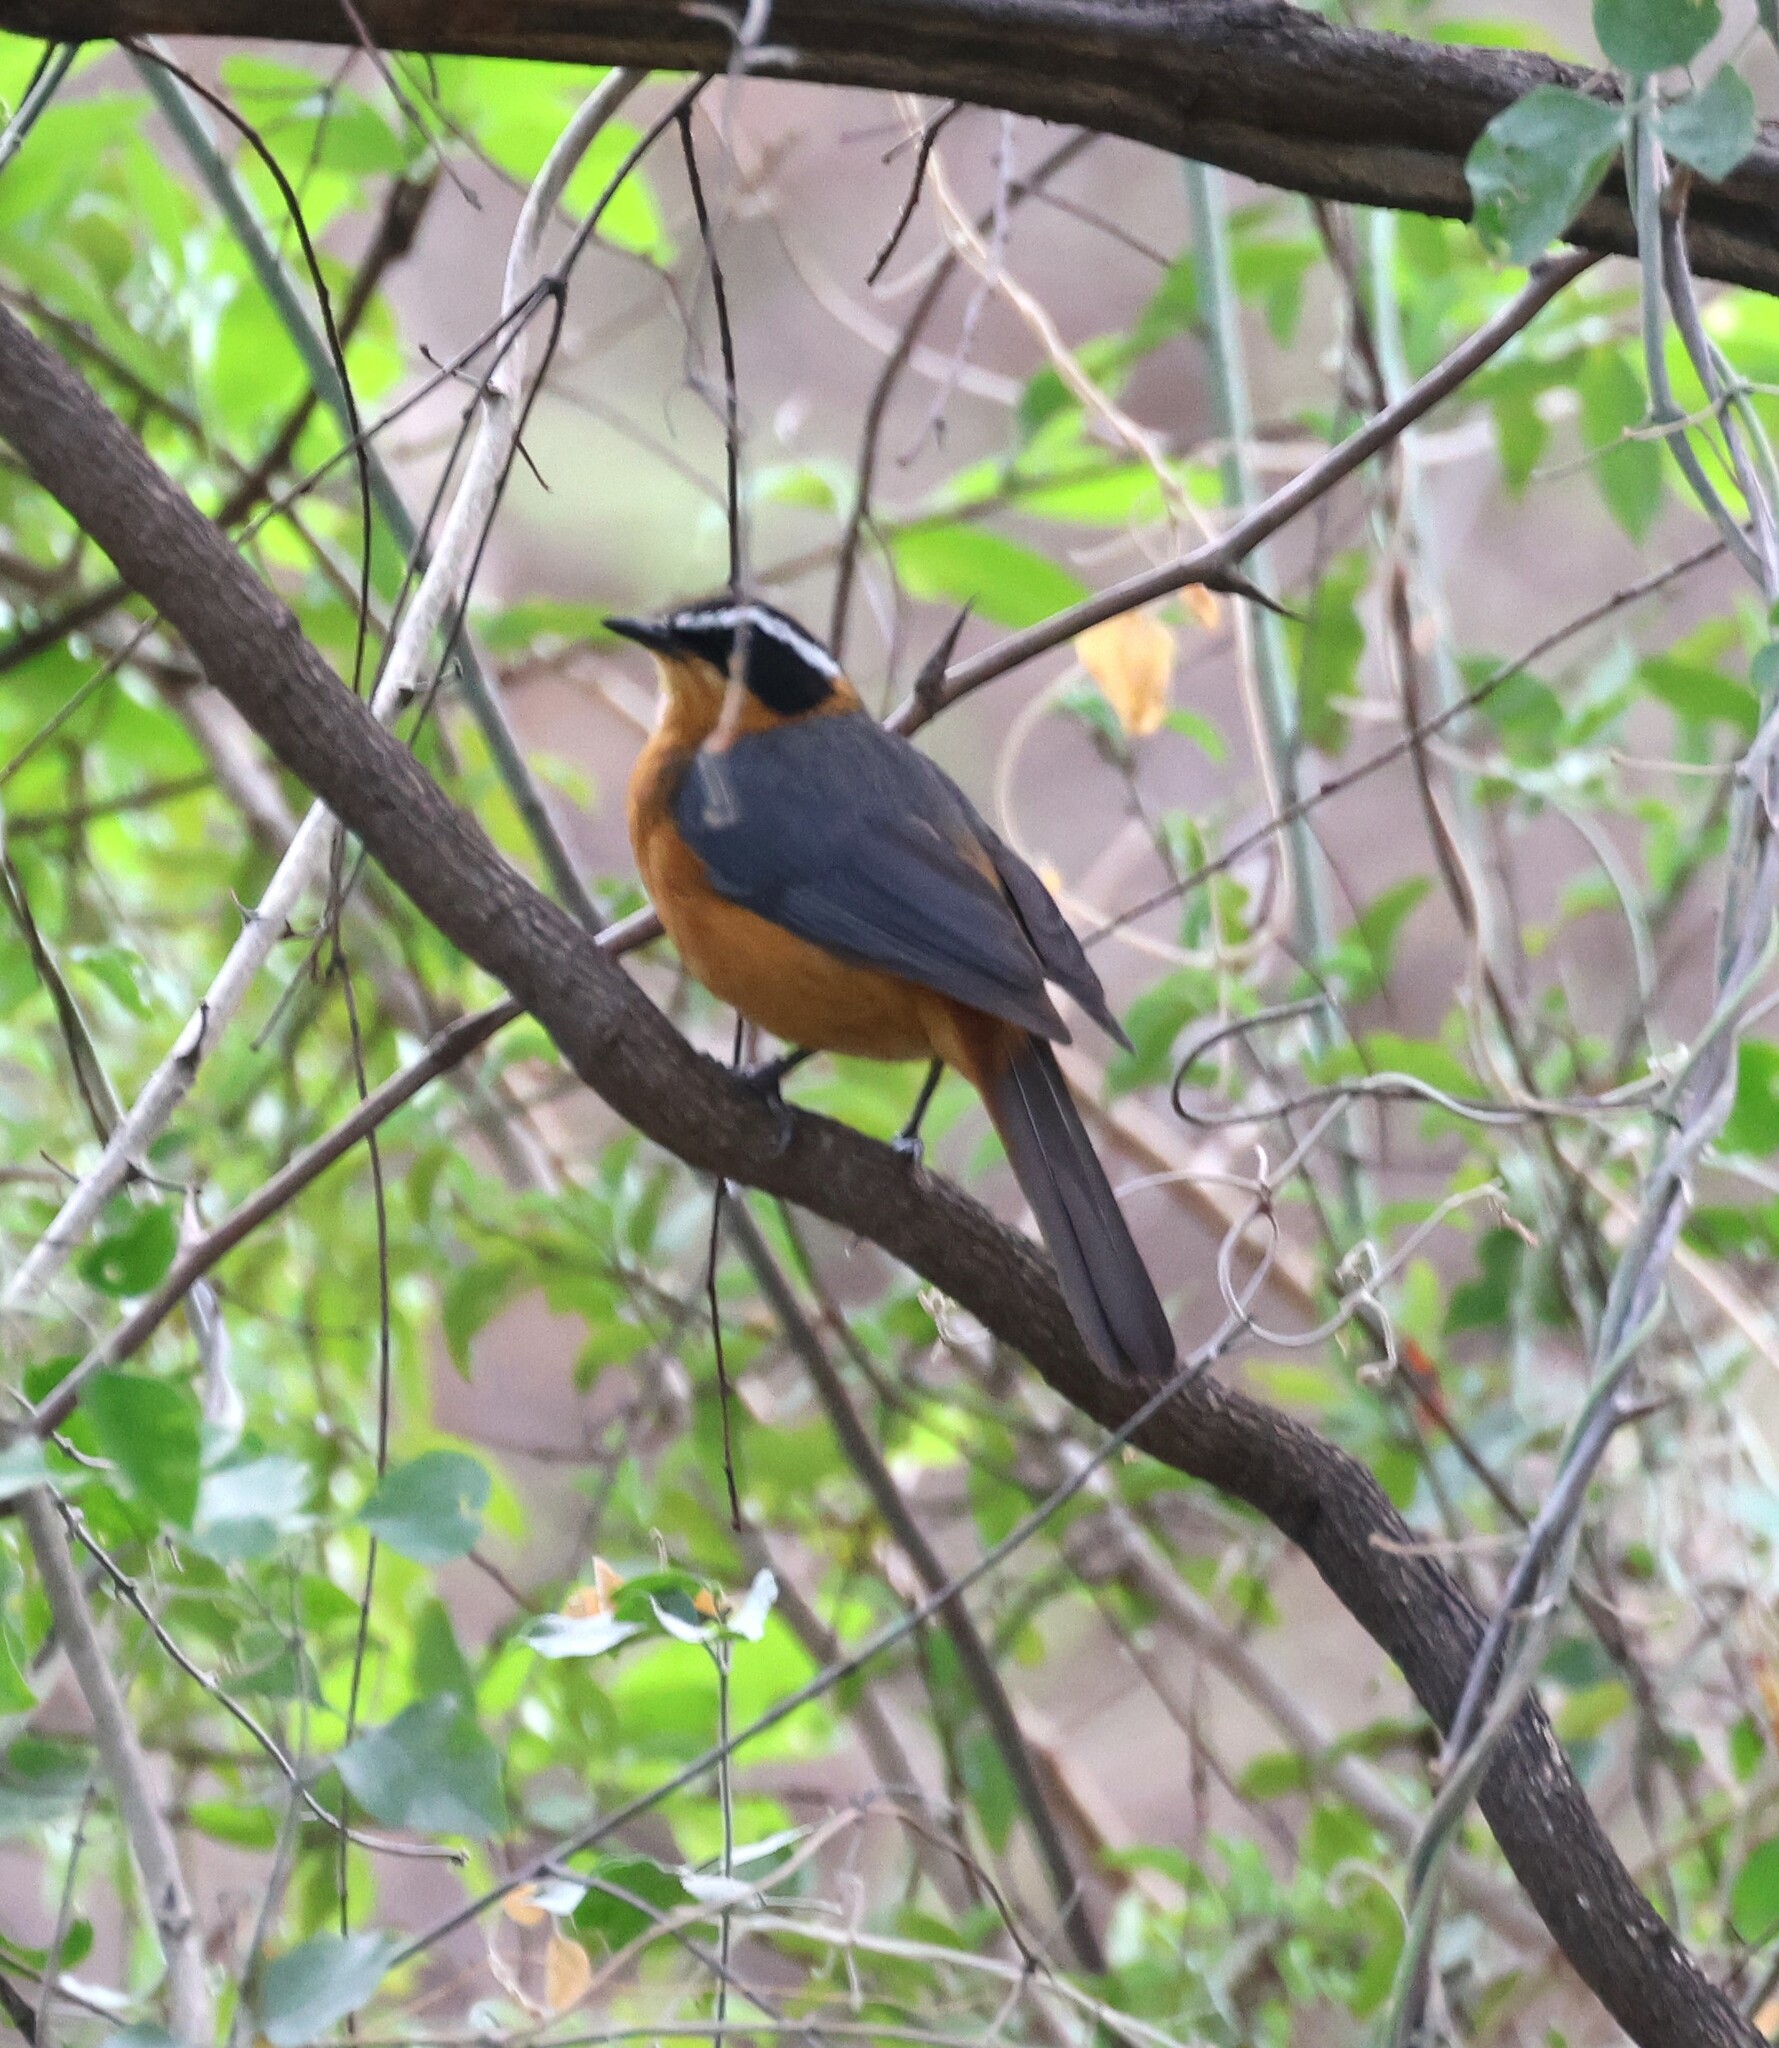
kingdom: Animalia
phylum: Chordata
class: Aves
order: Passeriformes
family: Muscicapidae
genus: Cossypha
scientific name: Cossypha heuglini
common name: White-browed robin-chat
